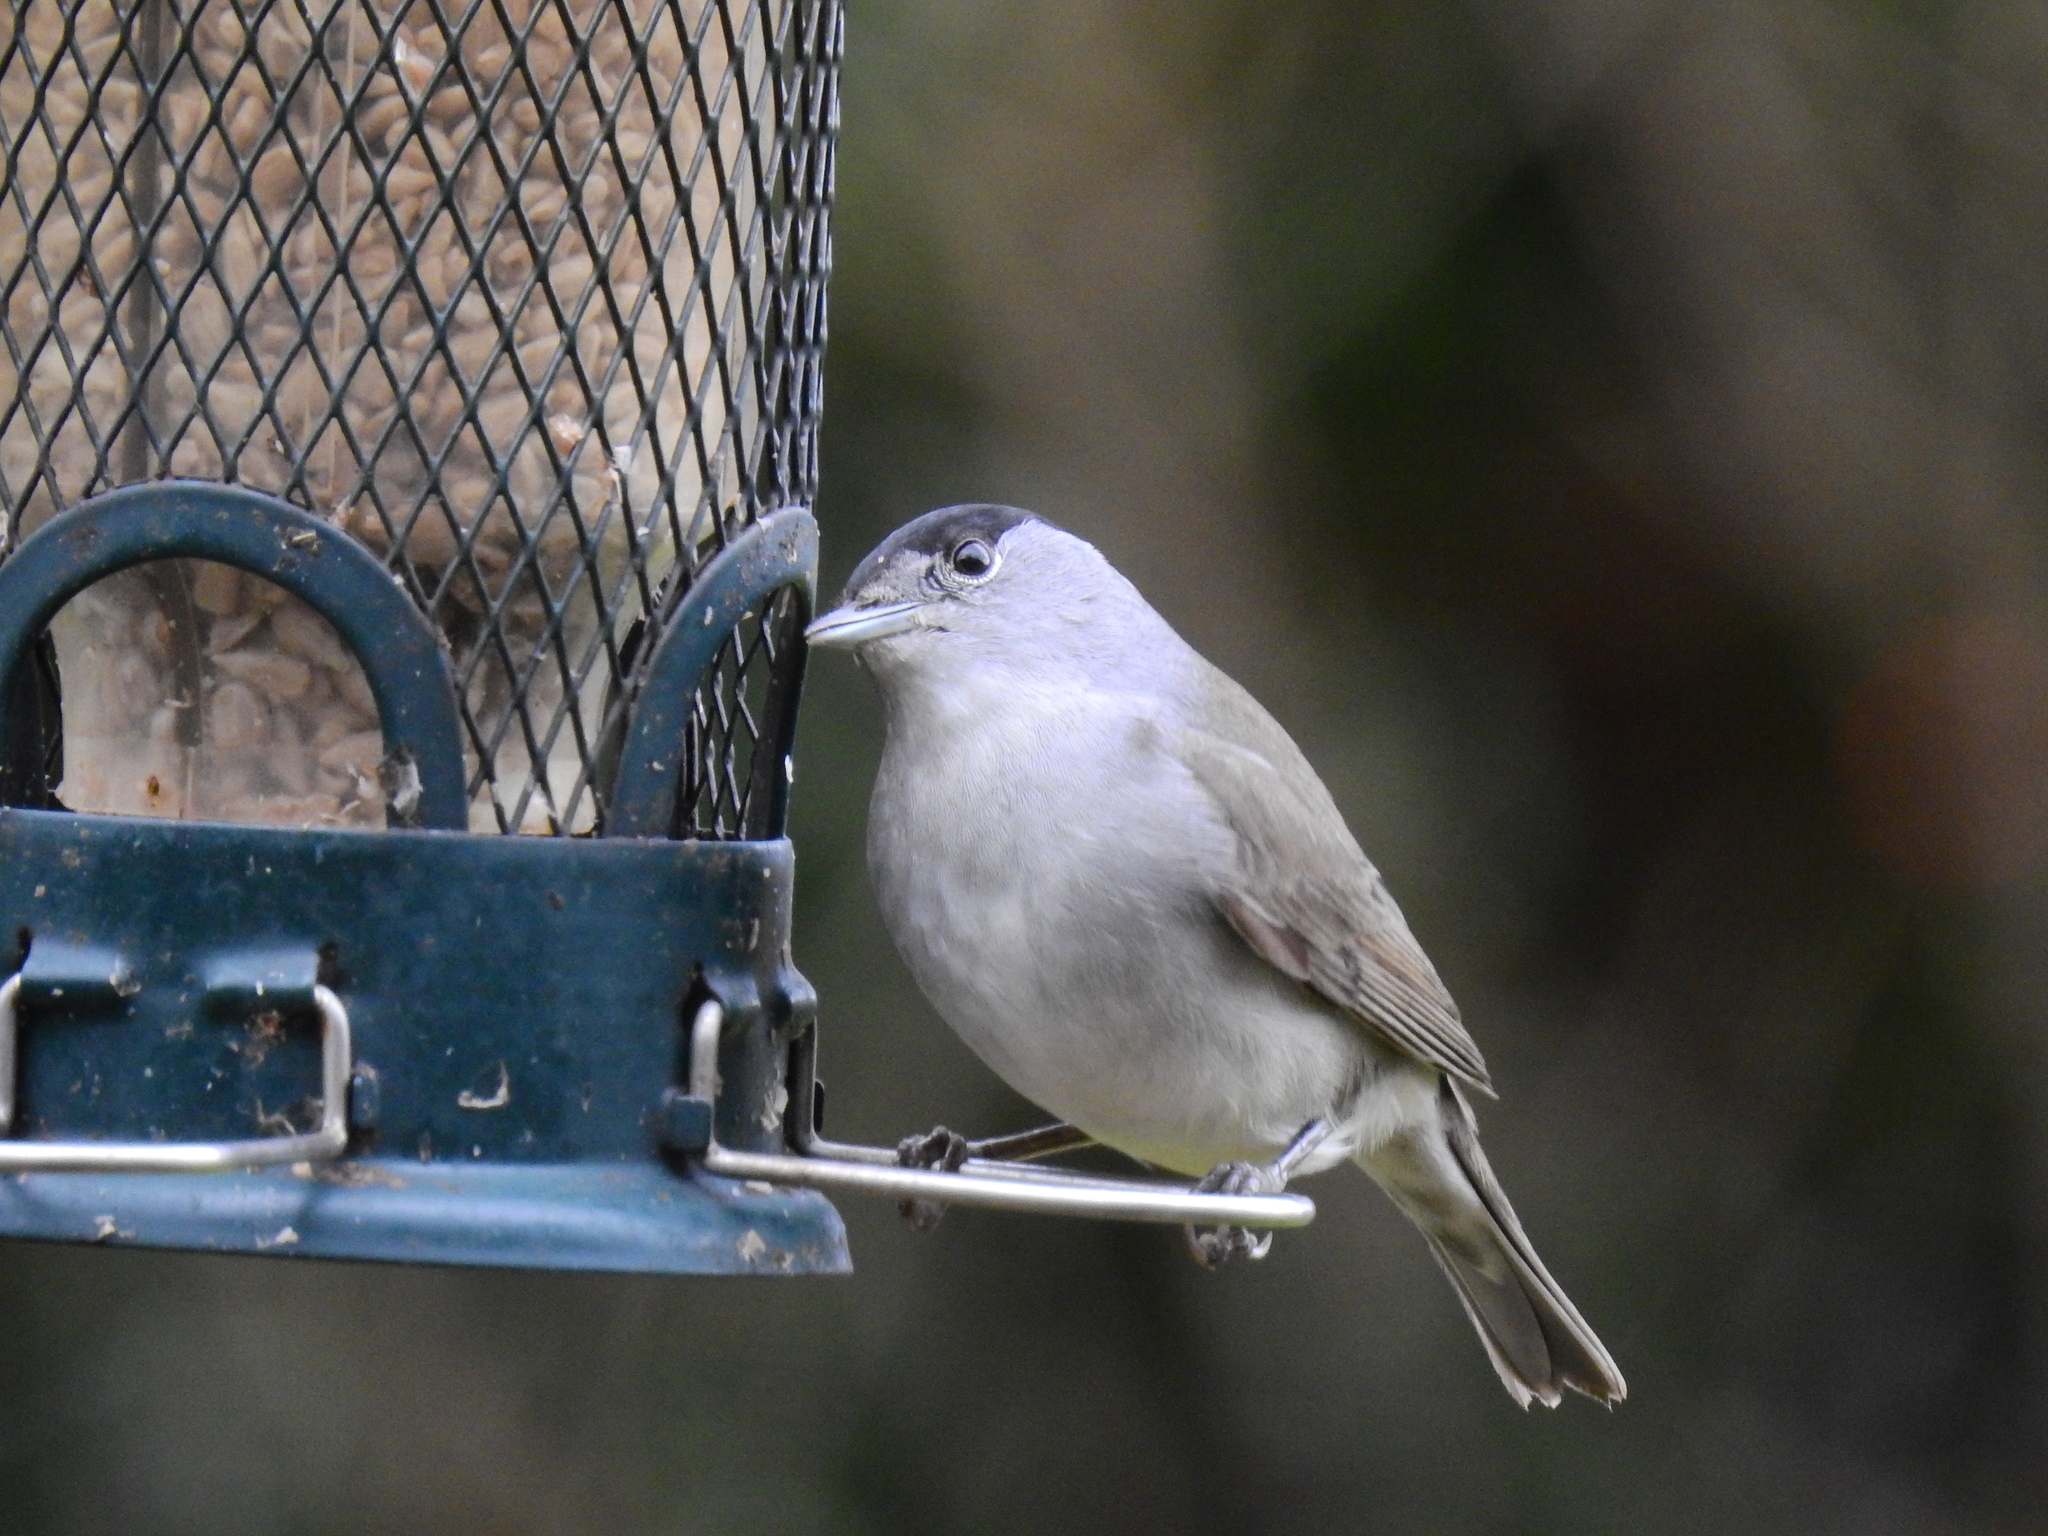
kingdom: Animalia
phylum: Chordata
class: Aves
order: Passeriformes
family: Sylviidae
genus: Sylvia
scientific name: Sylvia atricapilla
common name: Eurasian blackcap
